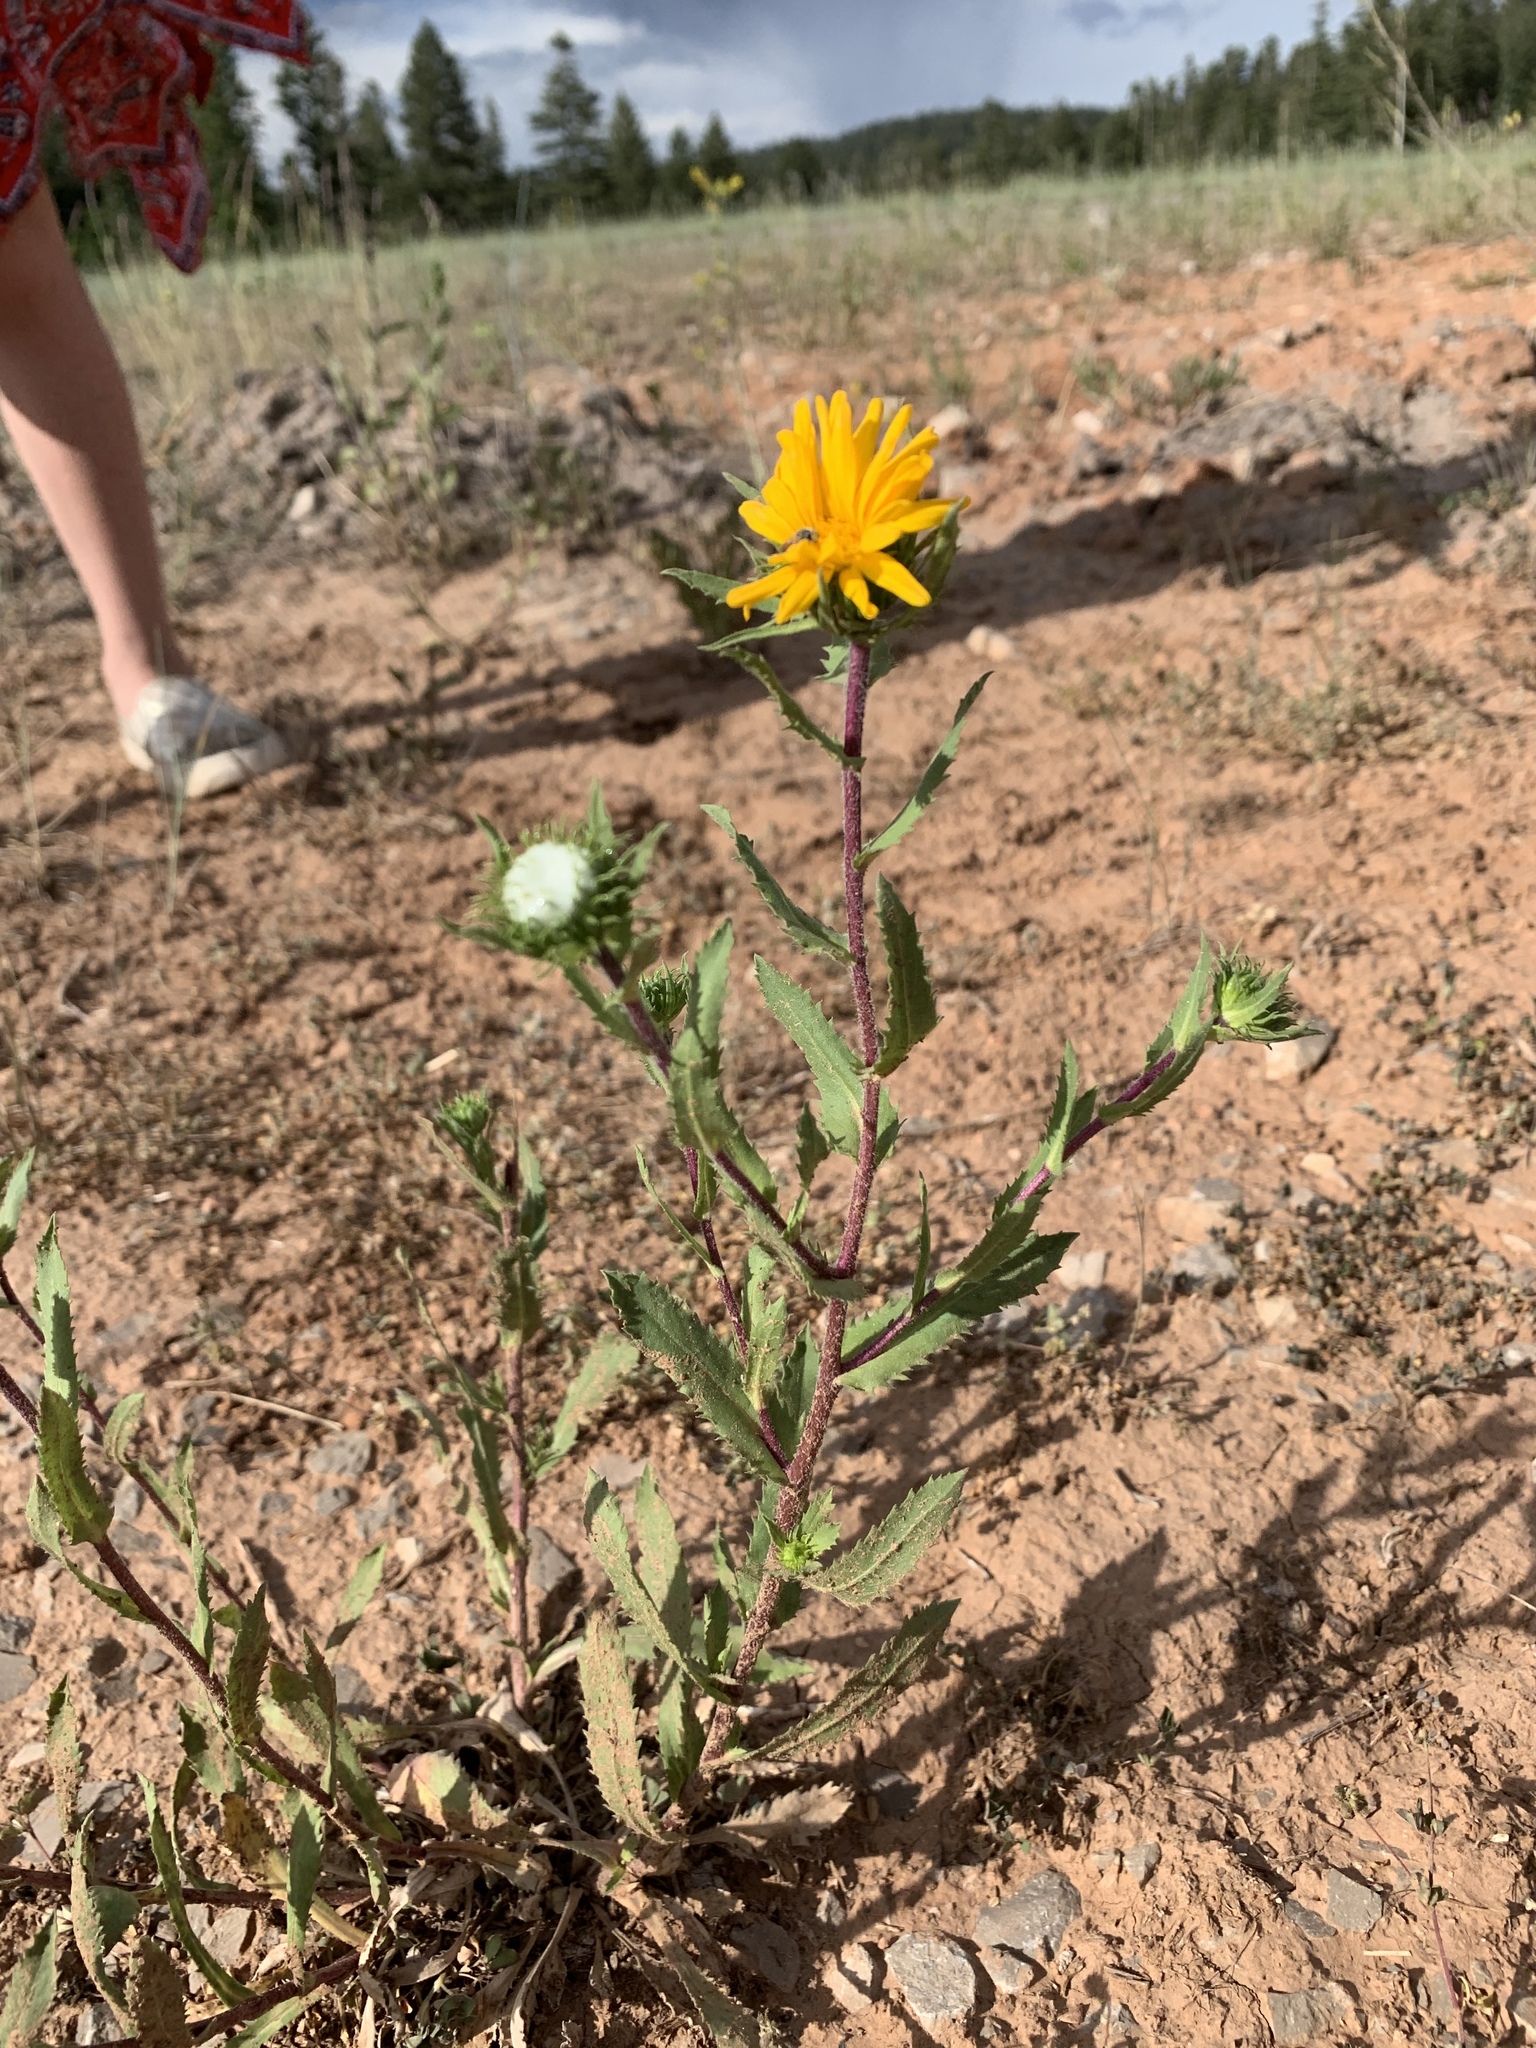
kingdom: Plantae
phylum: Tracheophyta
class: Magnoliopsida
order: Asterales
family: Asteraceae
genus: Grindelia
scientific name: Grindelia scabra
